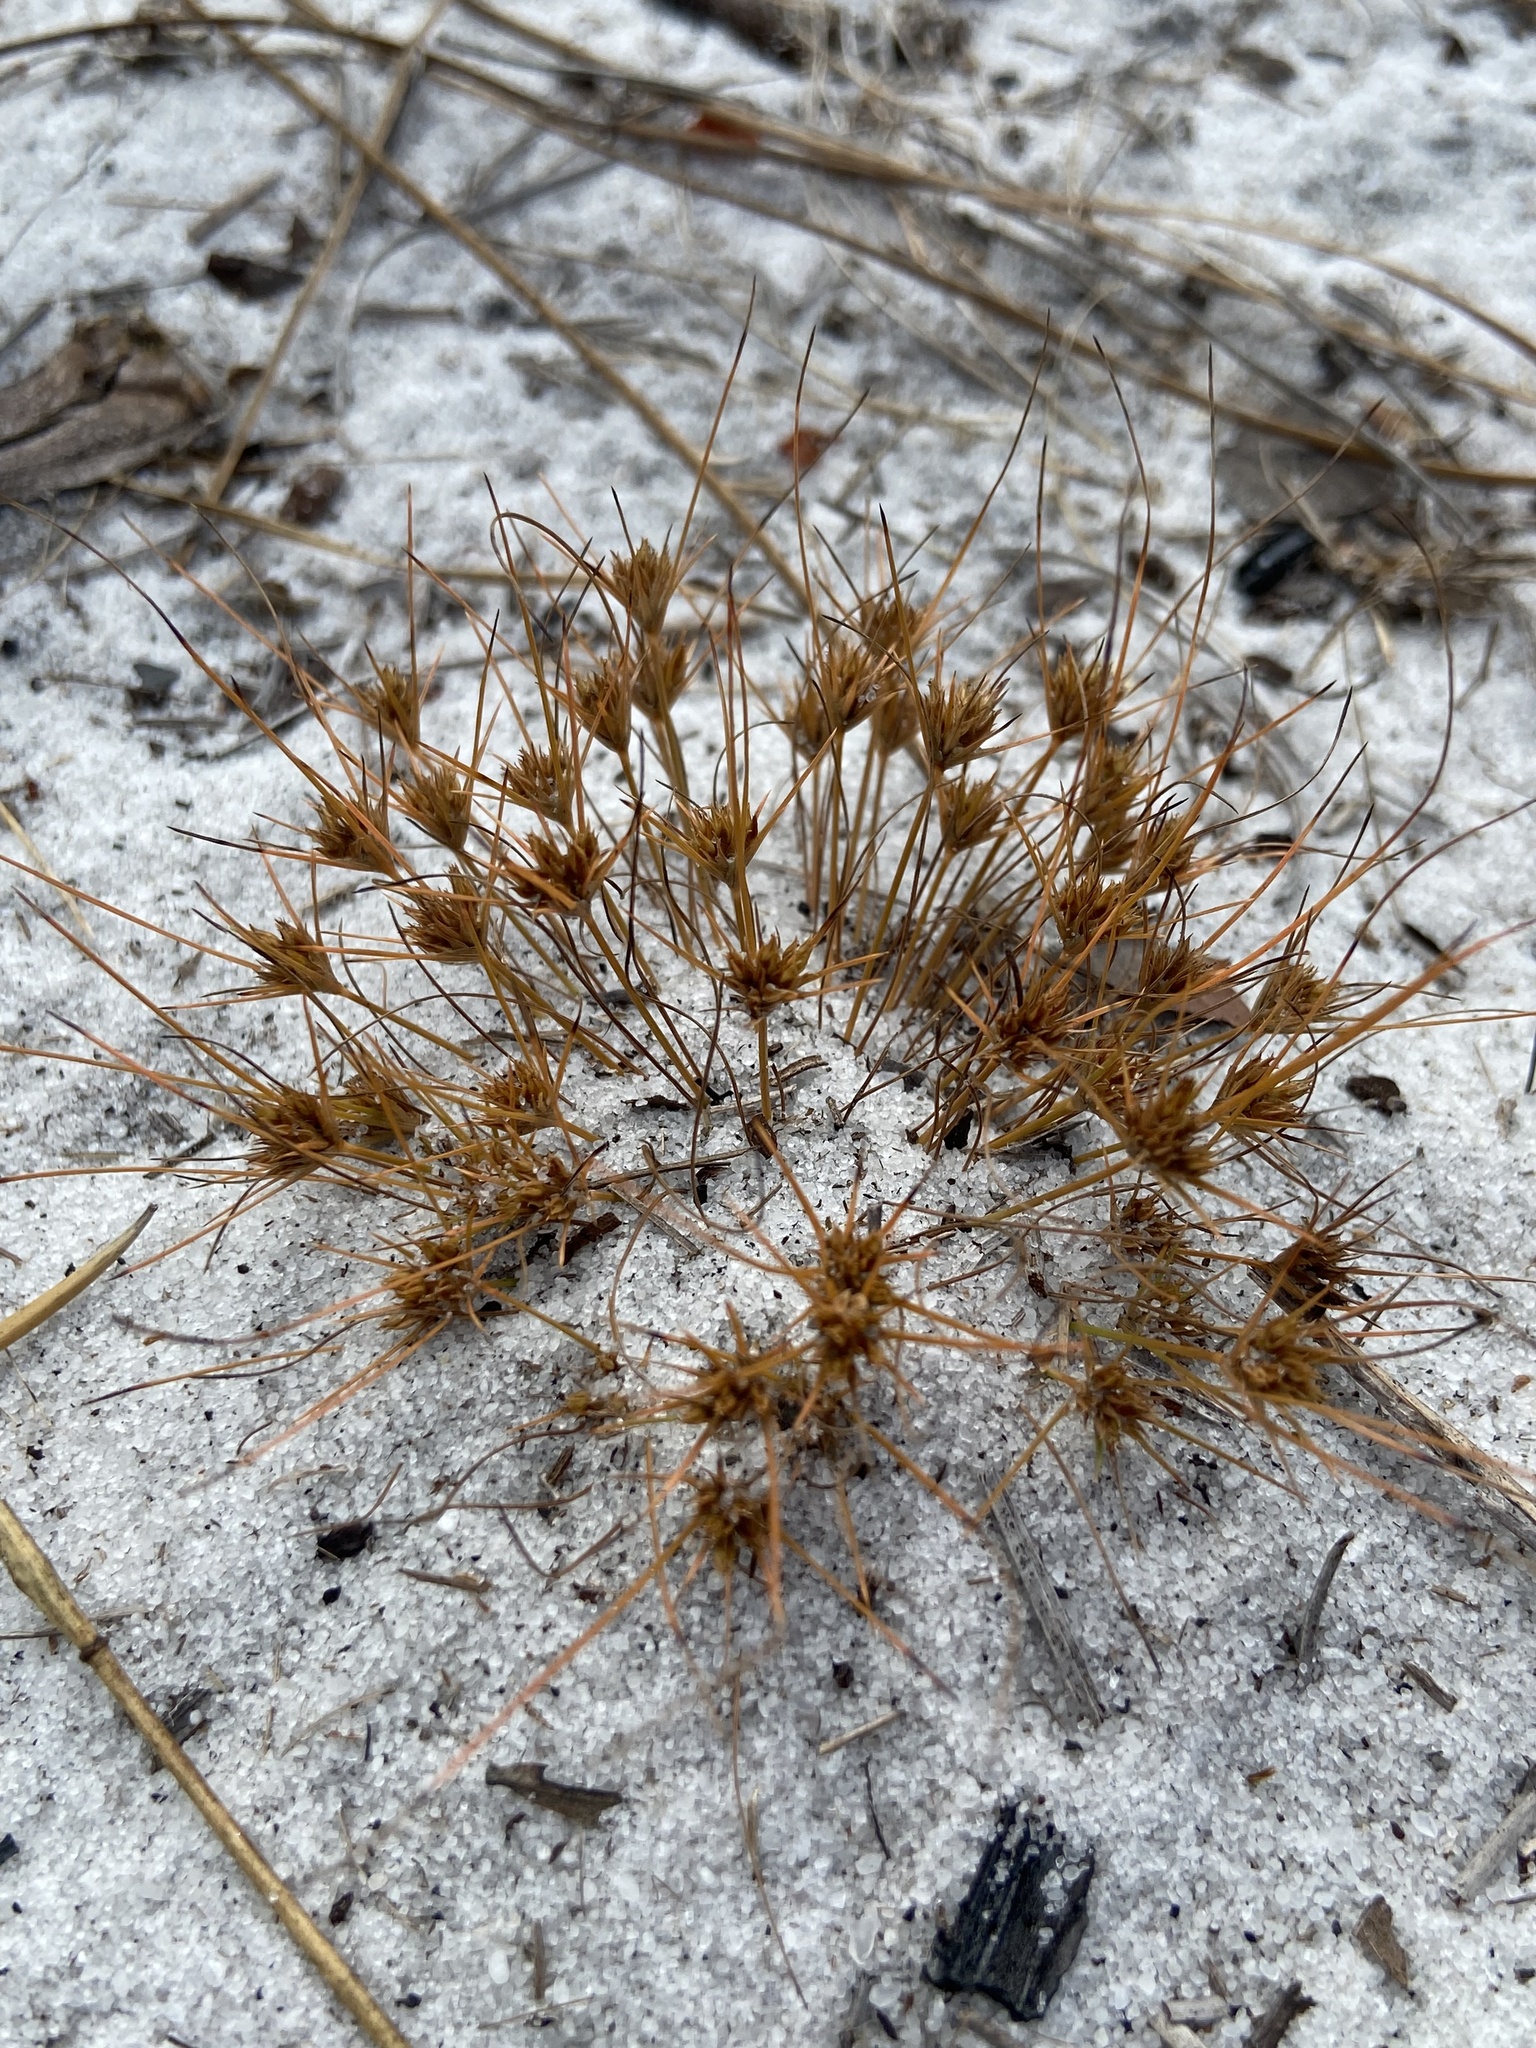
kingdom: Plantae
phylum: Tracheophyta
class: Liliopsida
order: Poales
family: Cyperaceae
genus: Bulbostylis
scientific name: Bulbostylis stenophylla
